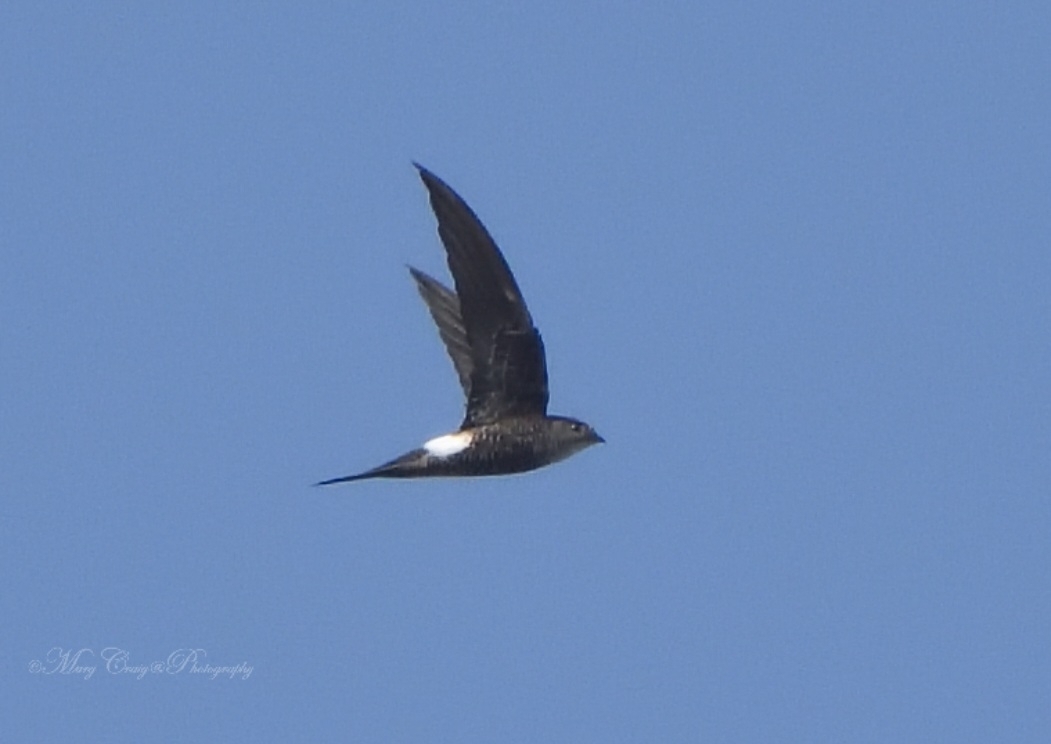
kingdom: Animalia
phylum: Chordata
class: Aves
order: Apodiformes
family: Apodidae
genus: Apus
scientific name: Apus pacificus
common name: Pacific swift
